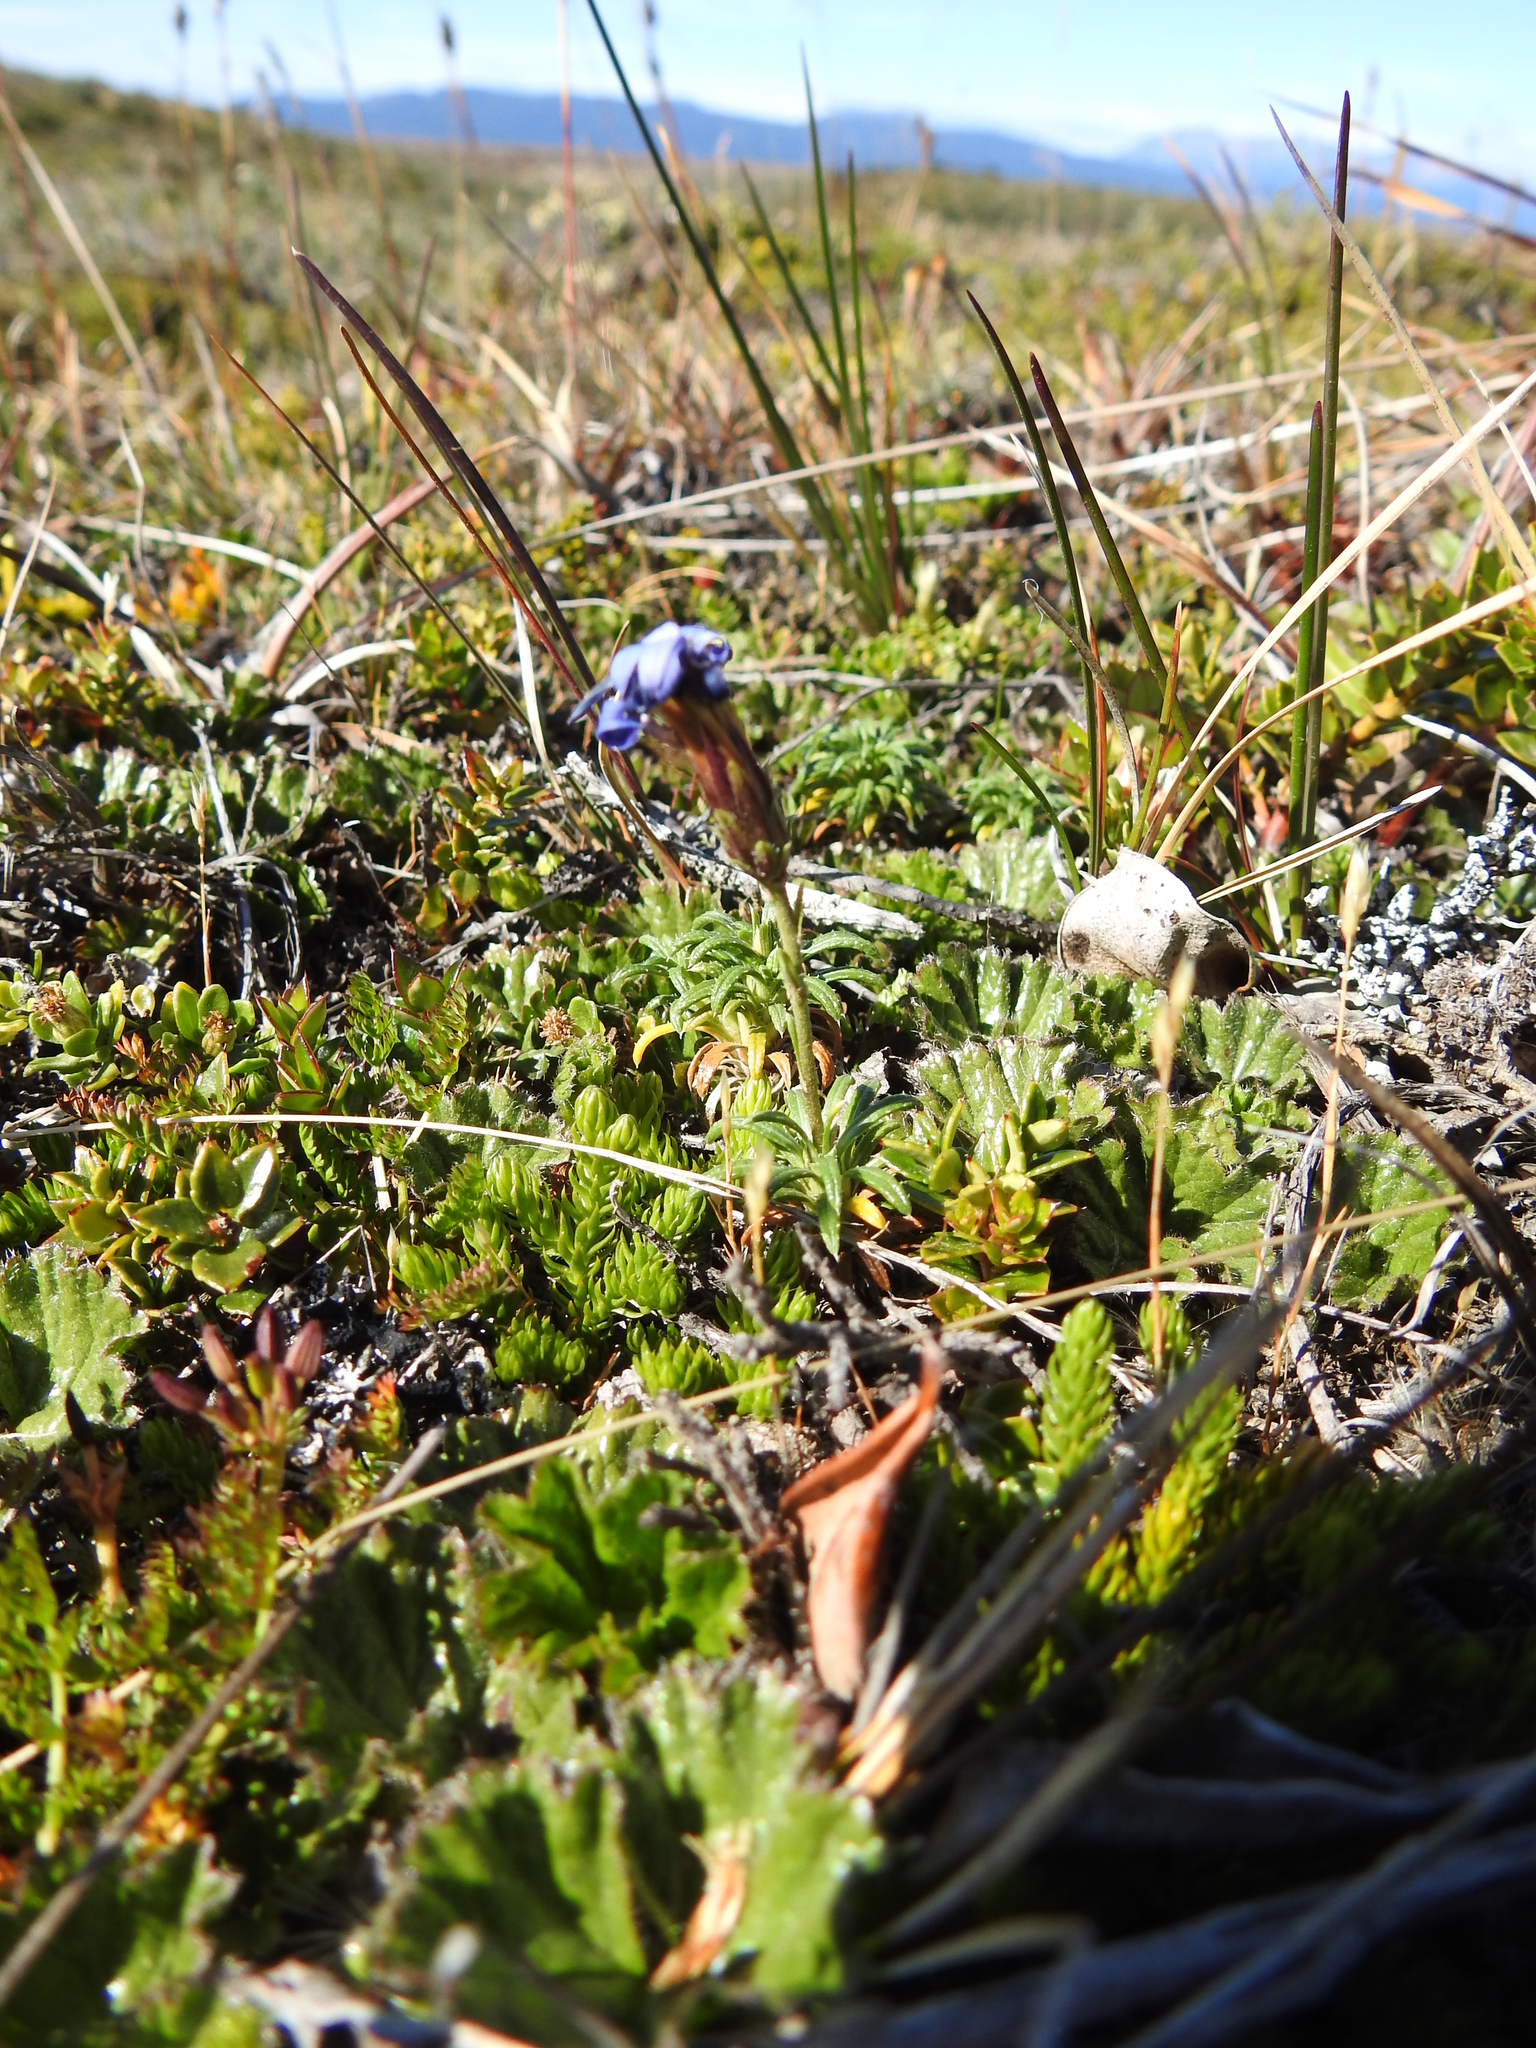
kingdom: Plantae
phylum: Tracheophyta
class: Magnoliopsida
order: Asterales
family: Asteraceae
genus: Perezia
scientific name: Perezia recurvata
